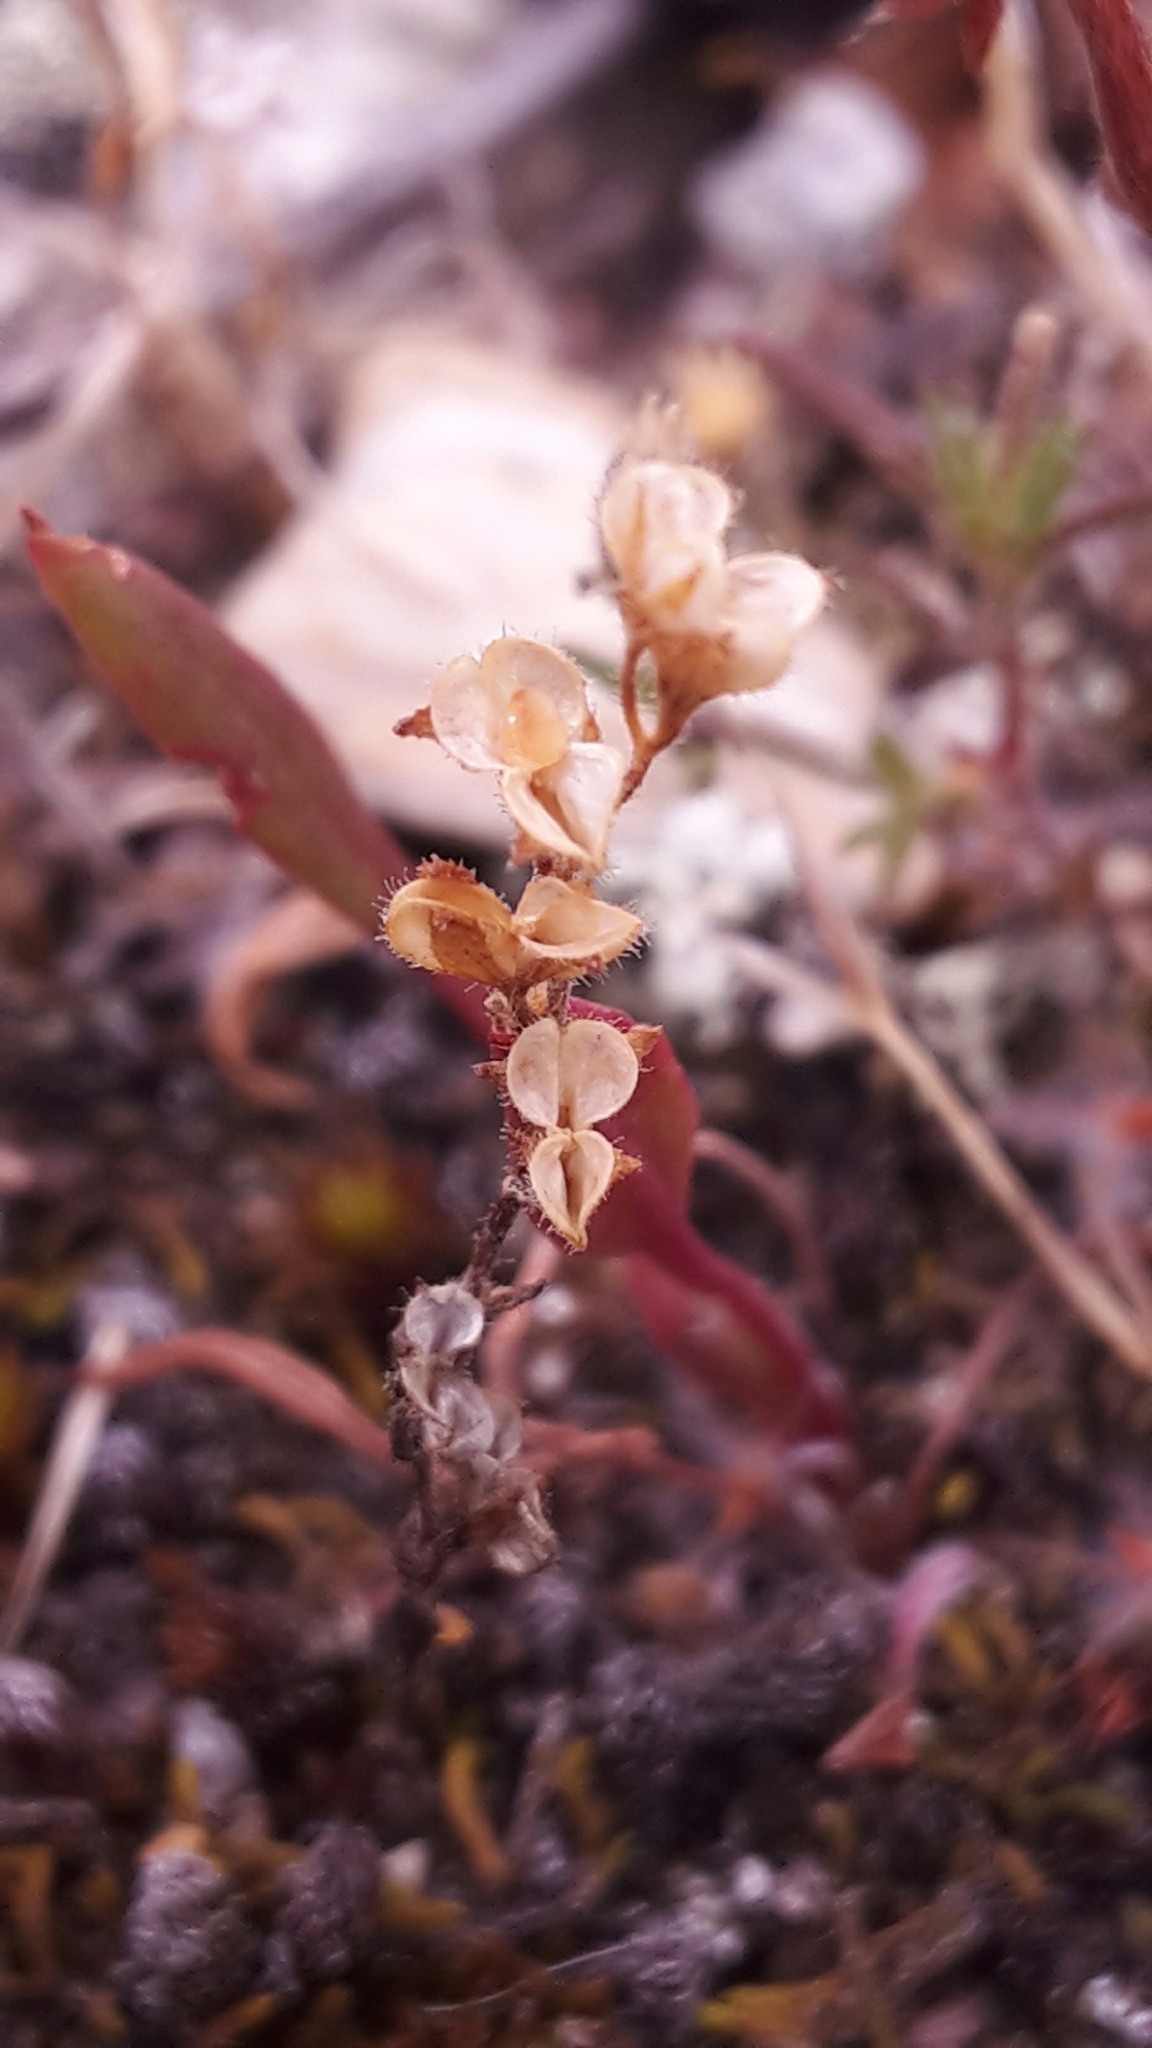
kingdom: Plantae
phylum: Tracheophyta
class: Magnoliopsida
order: Lamiales
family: Plantaginaceae
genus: Veronica
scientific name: Veronica verna
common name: Spring speedwell
